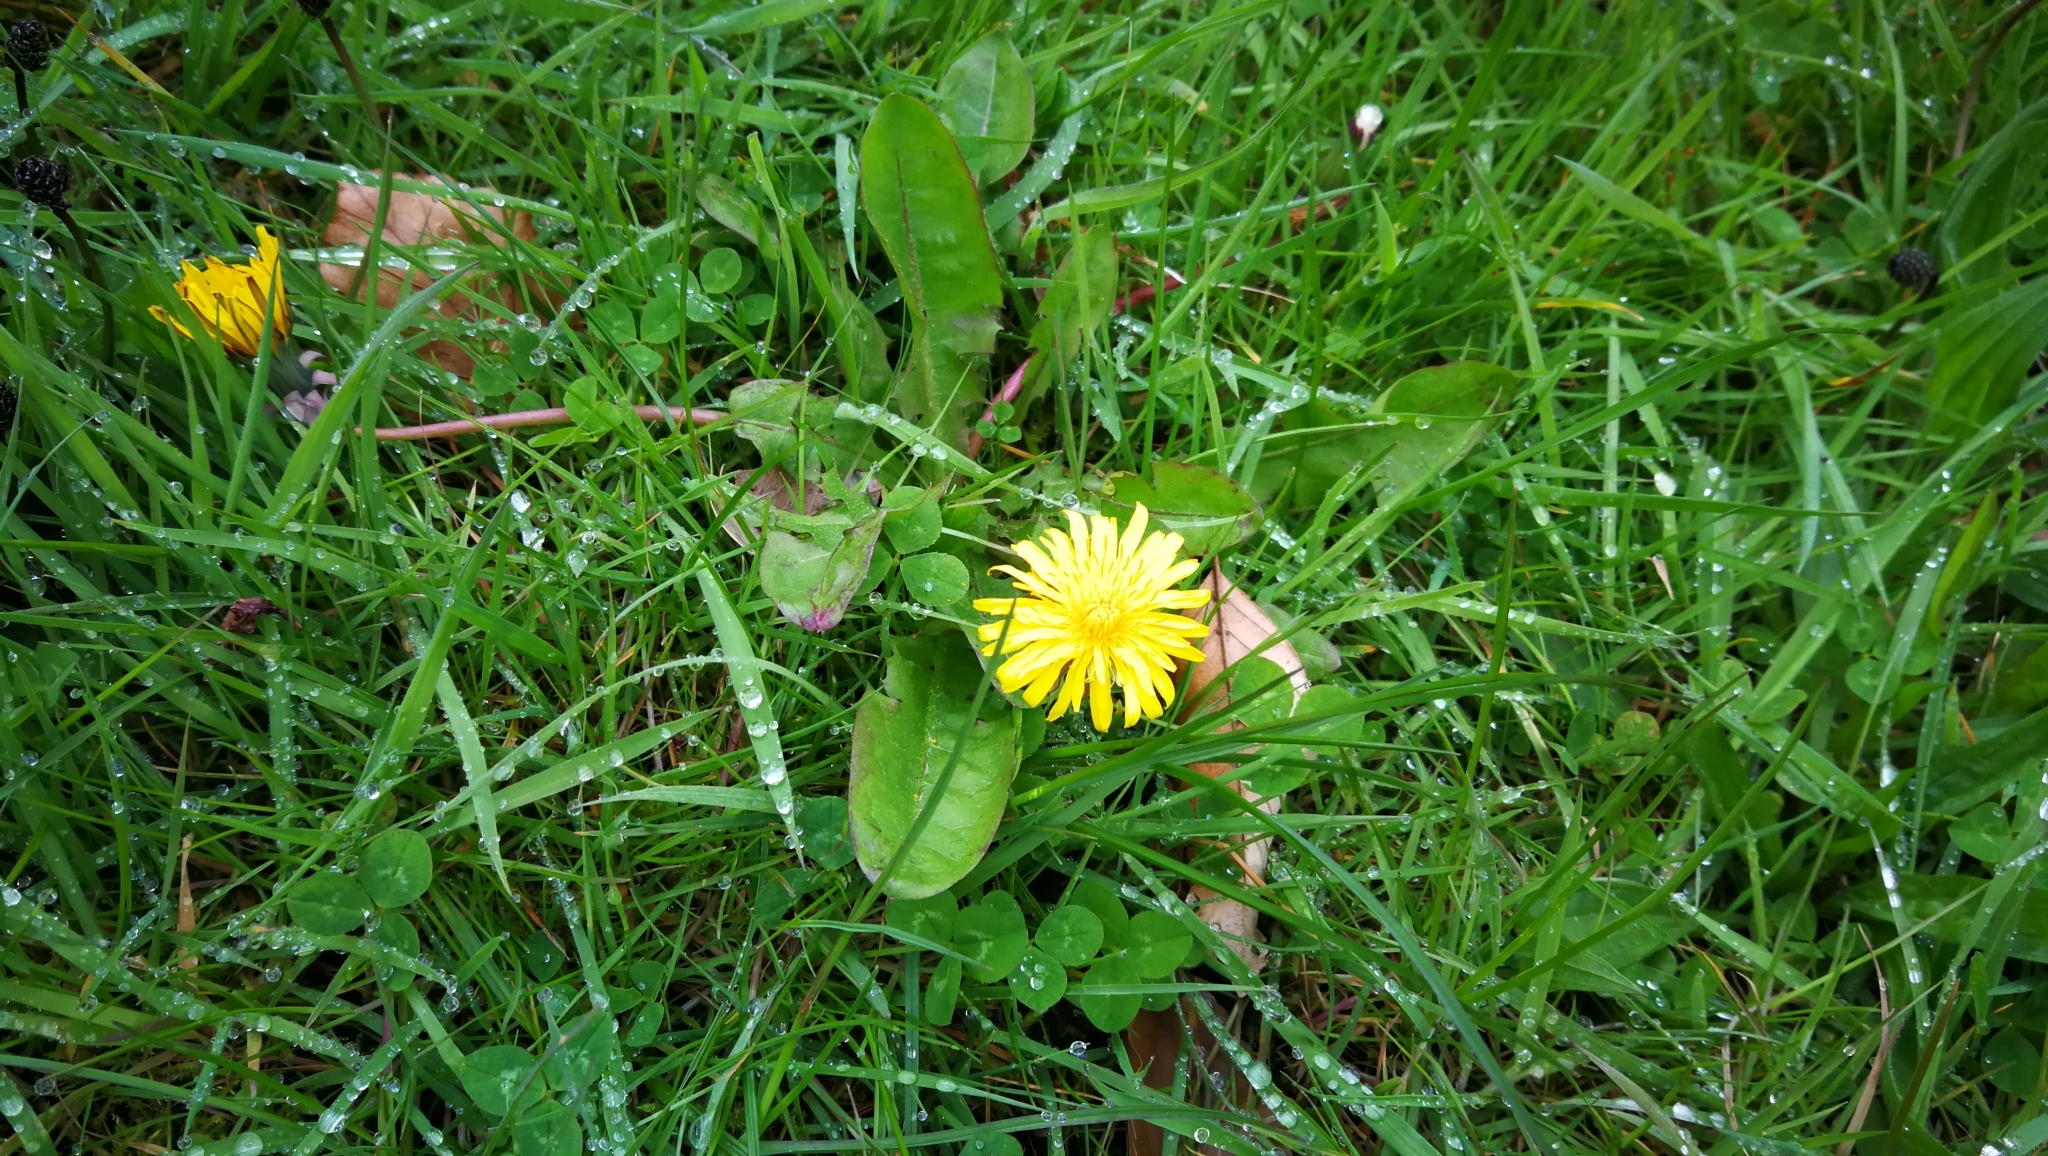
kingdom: Plantae
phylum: Tracheophyta
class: Magnoliopsida
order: Asterales
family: Asteraceae
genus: Taraxacum
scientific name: Taraxacum officinale
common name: Common dandelion
